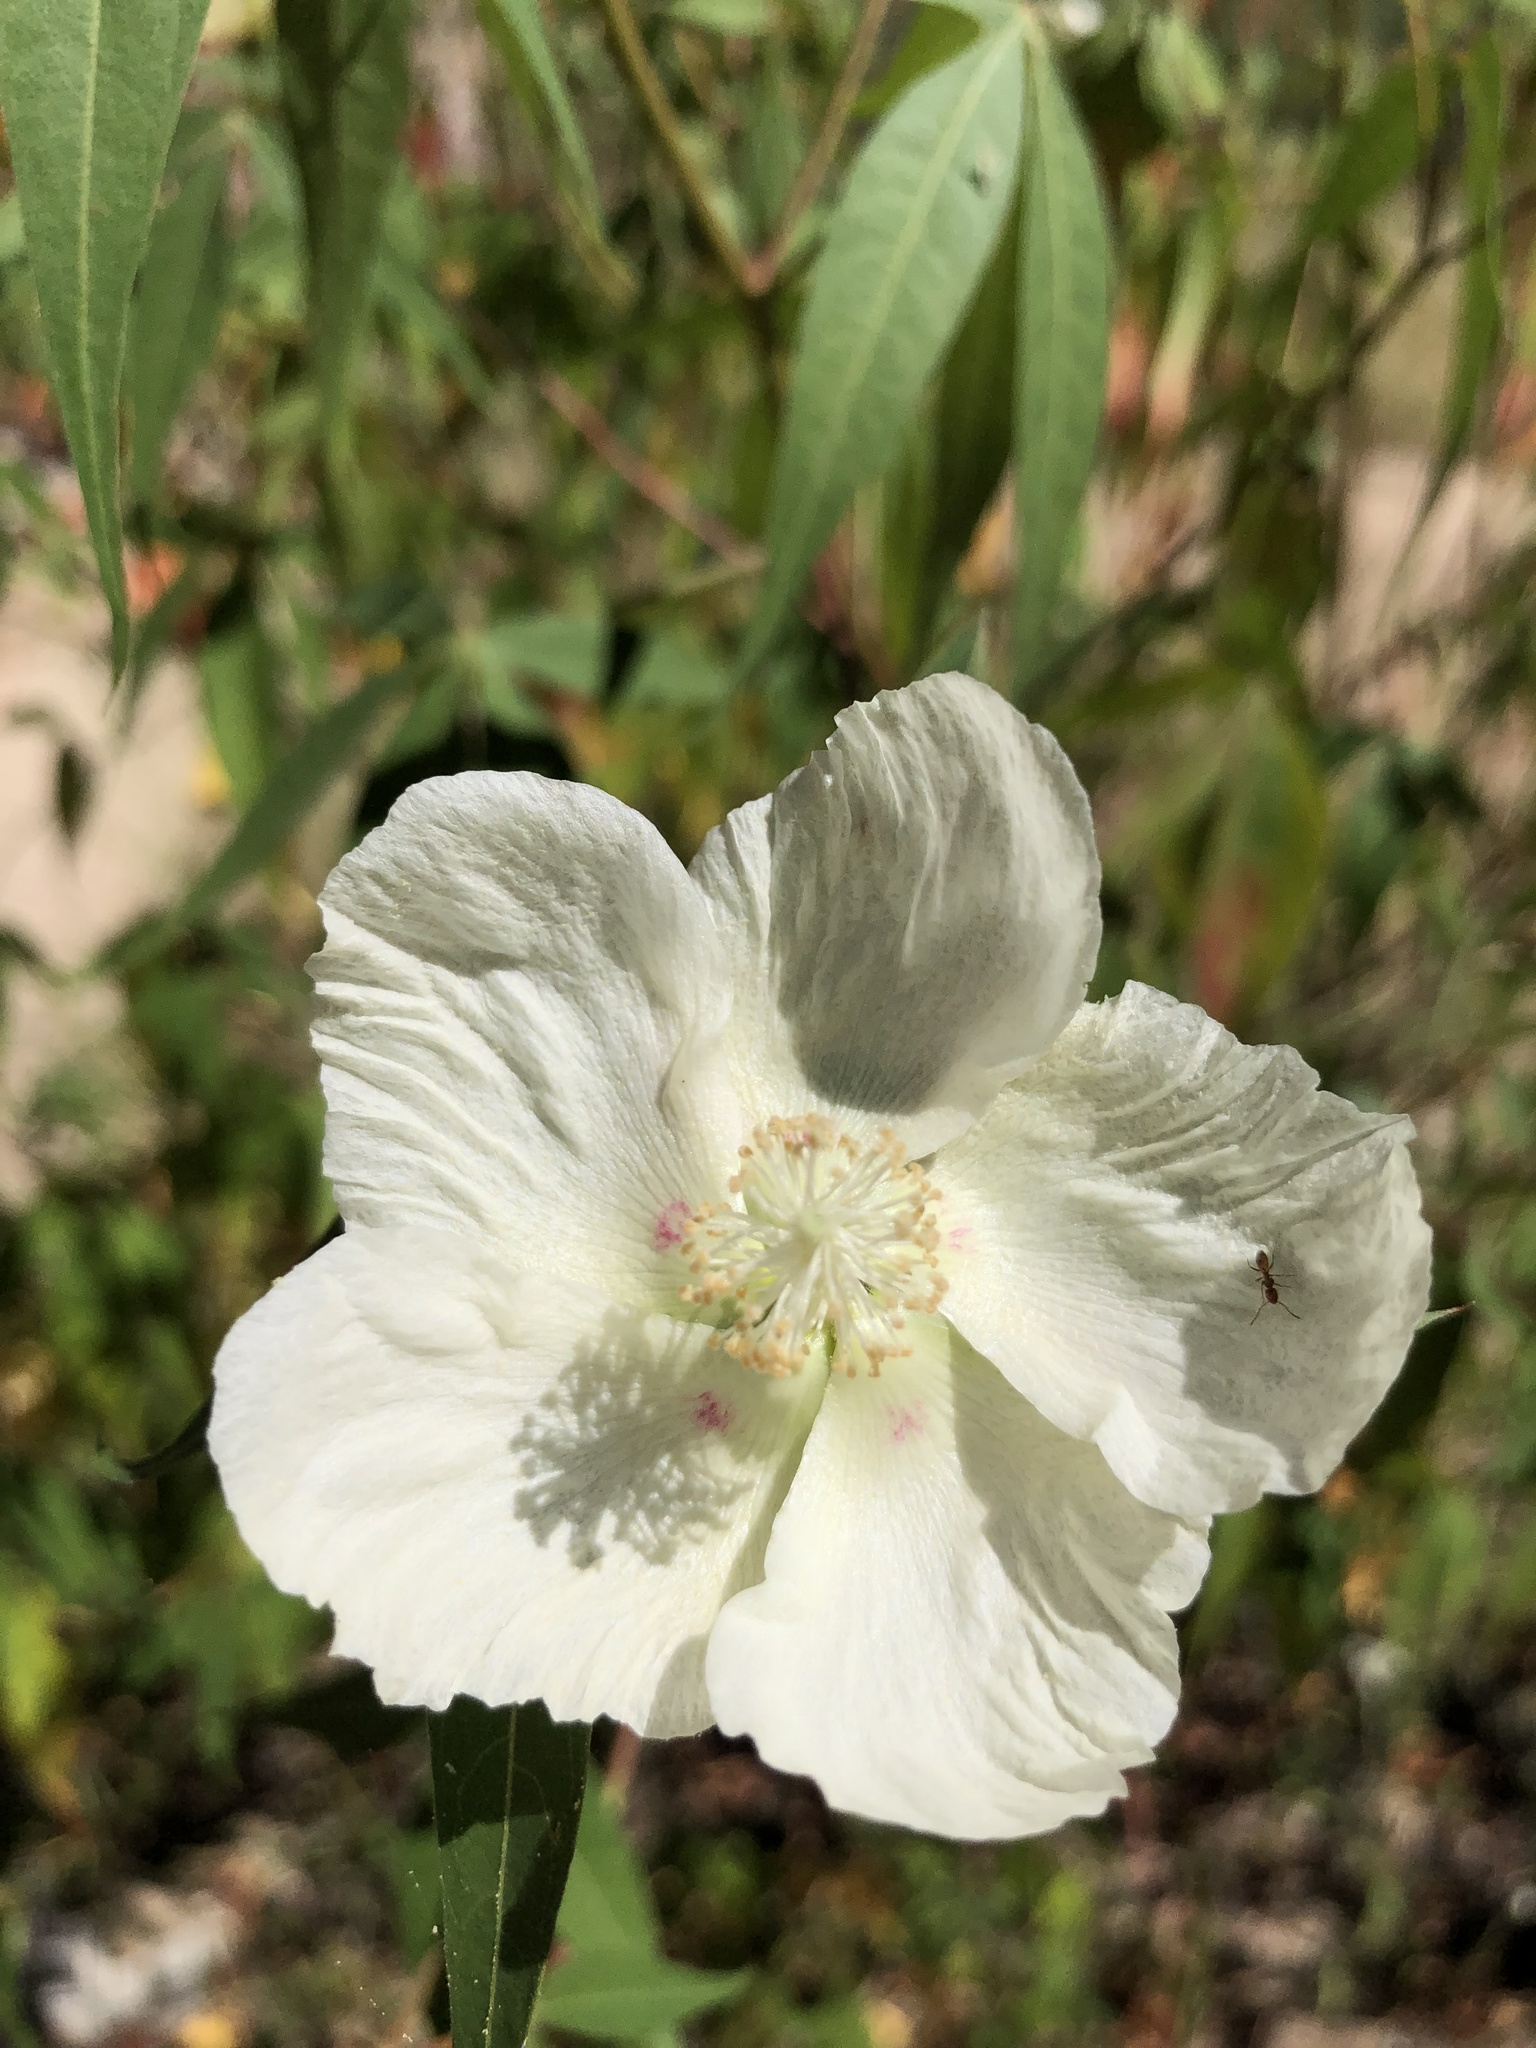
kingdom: Plantae
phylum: Tracheophyta
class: Magnoliopsida
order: Malvales
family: Malvaceae
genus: Gossypium
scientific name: Gossypium thurberi
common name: Desert cotton
